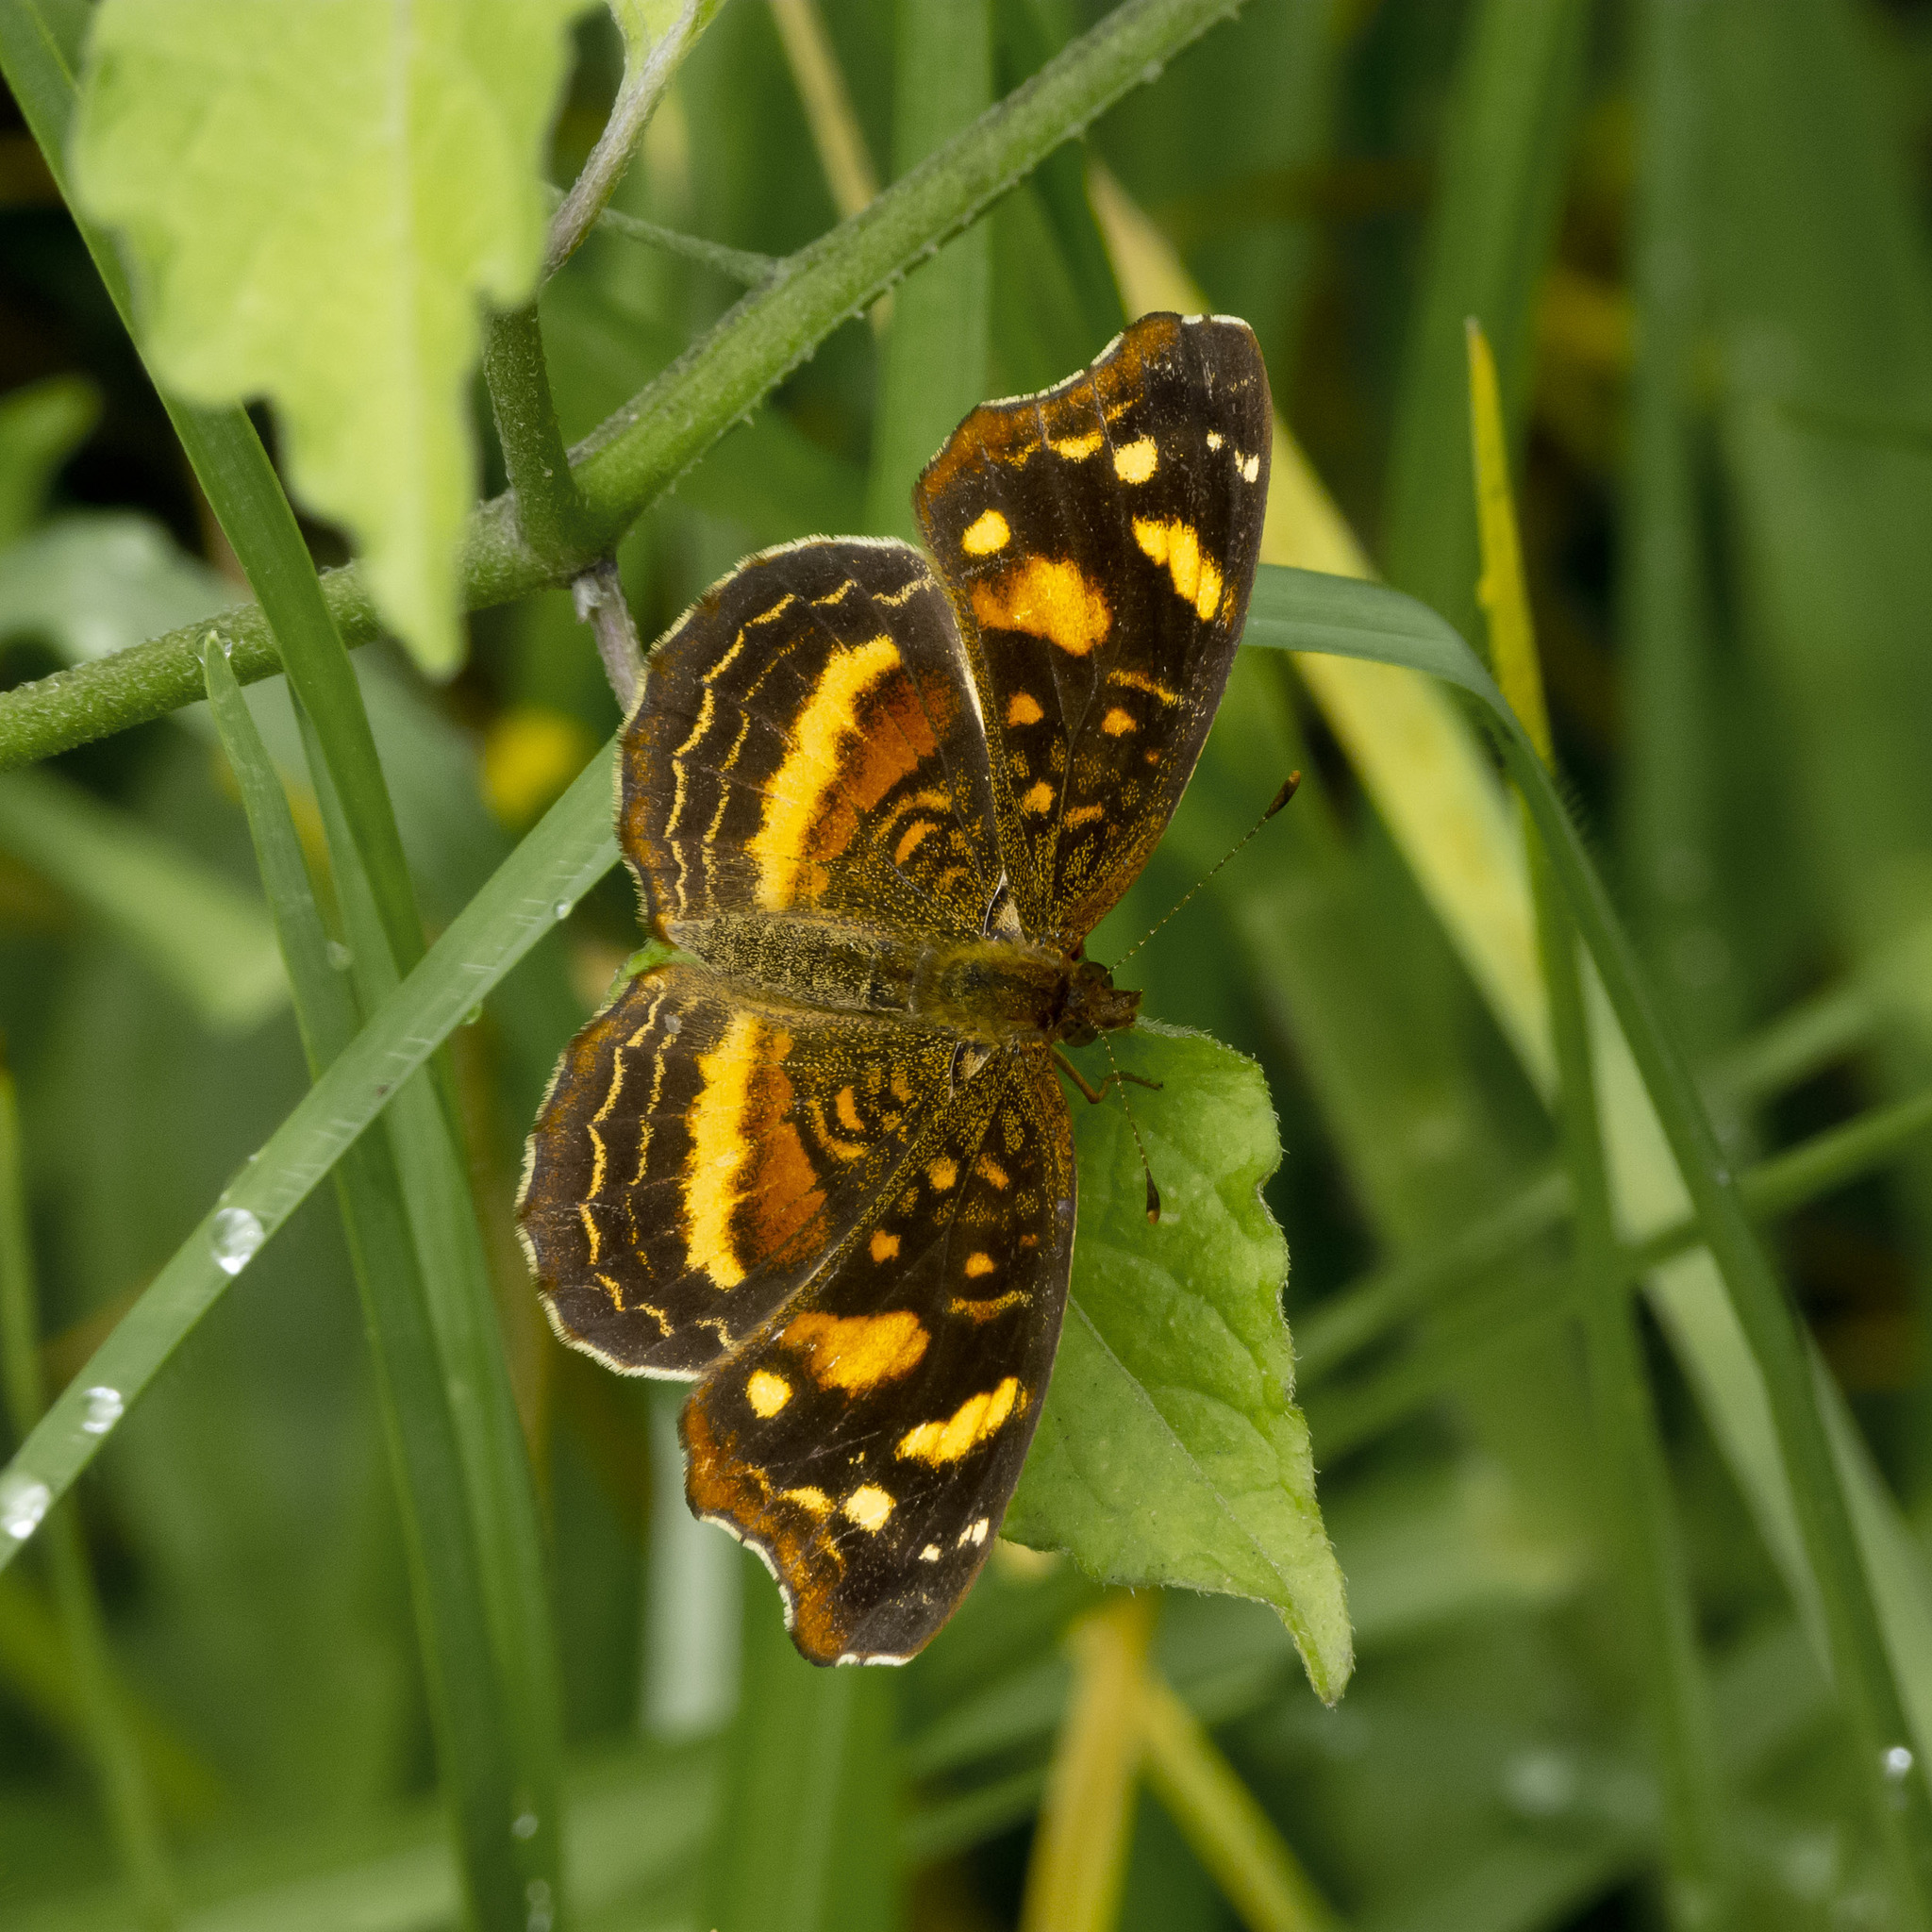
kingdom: Animalia
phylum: Arthropoda
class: Insecta
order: Lepidoptera
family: Nymphalidae
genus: Anthanassa
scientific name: Anthanassa drusilla
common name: Orange-patched crescent
